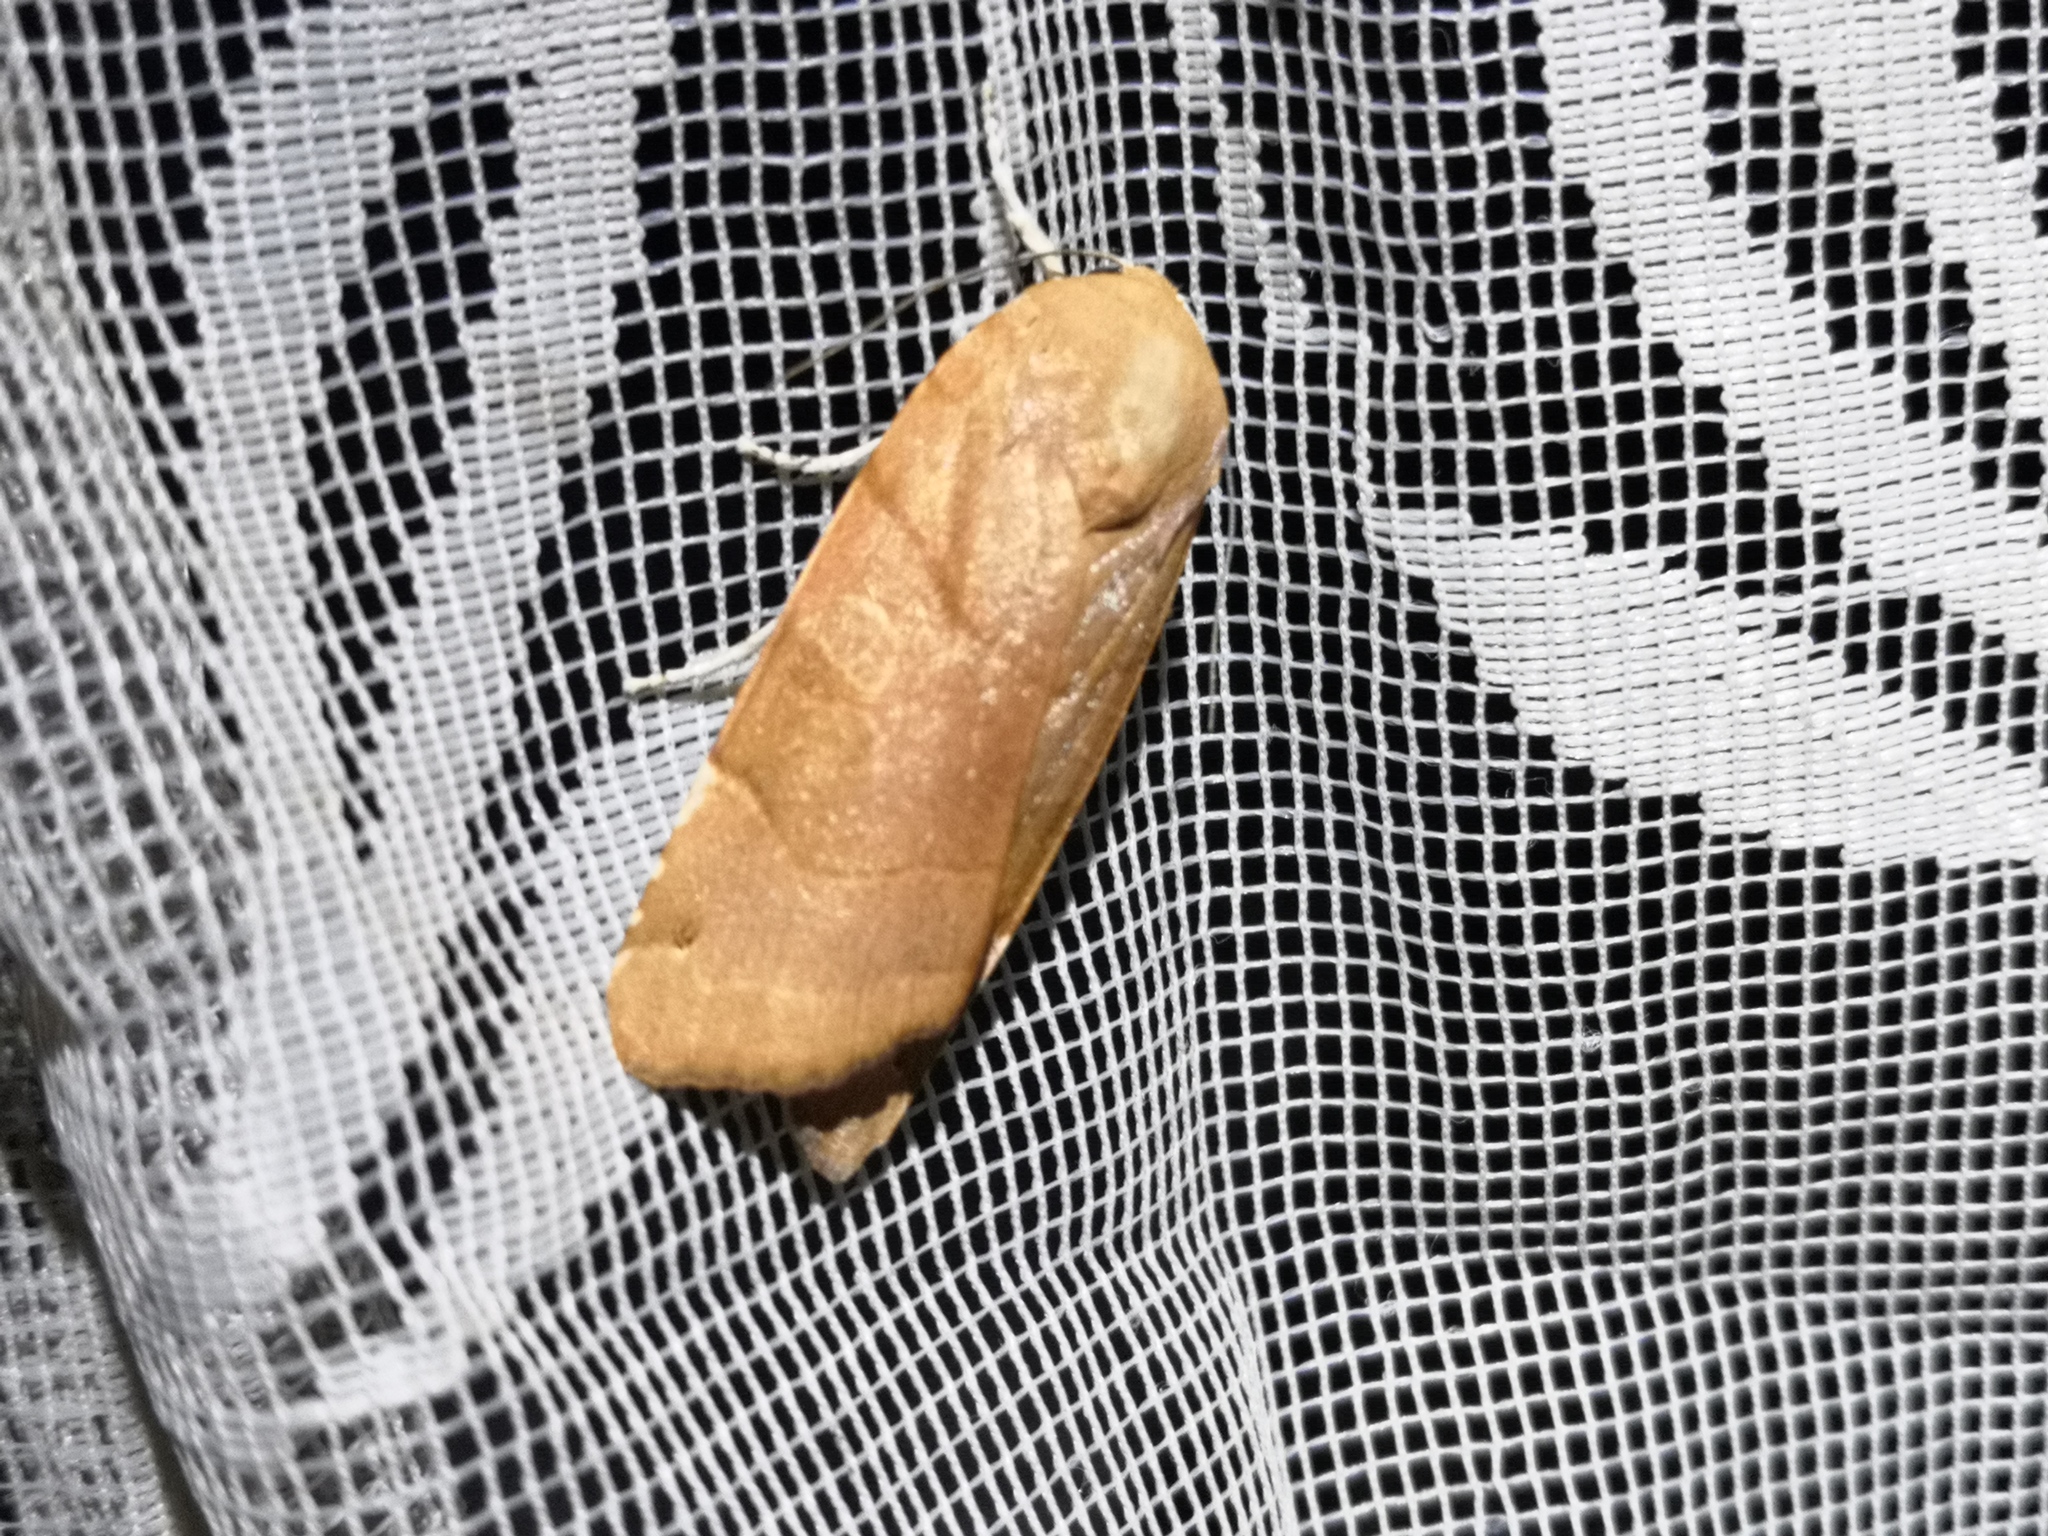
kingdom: Animalia
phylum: Arthropoda
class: Insecta
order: Lepidoptera
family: Noctuidae
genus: Noctua
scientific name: Noctua fimbriata
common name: Broad-bordered yellow underwing
